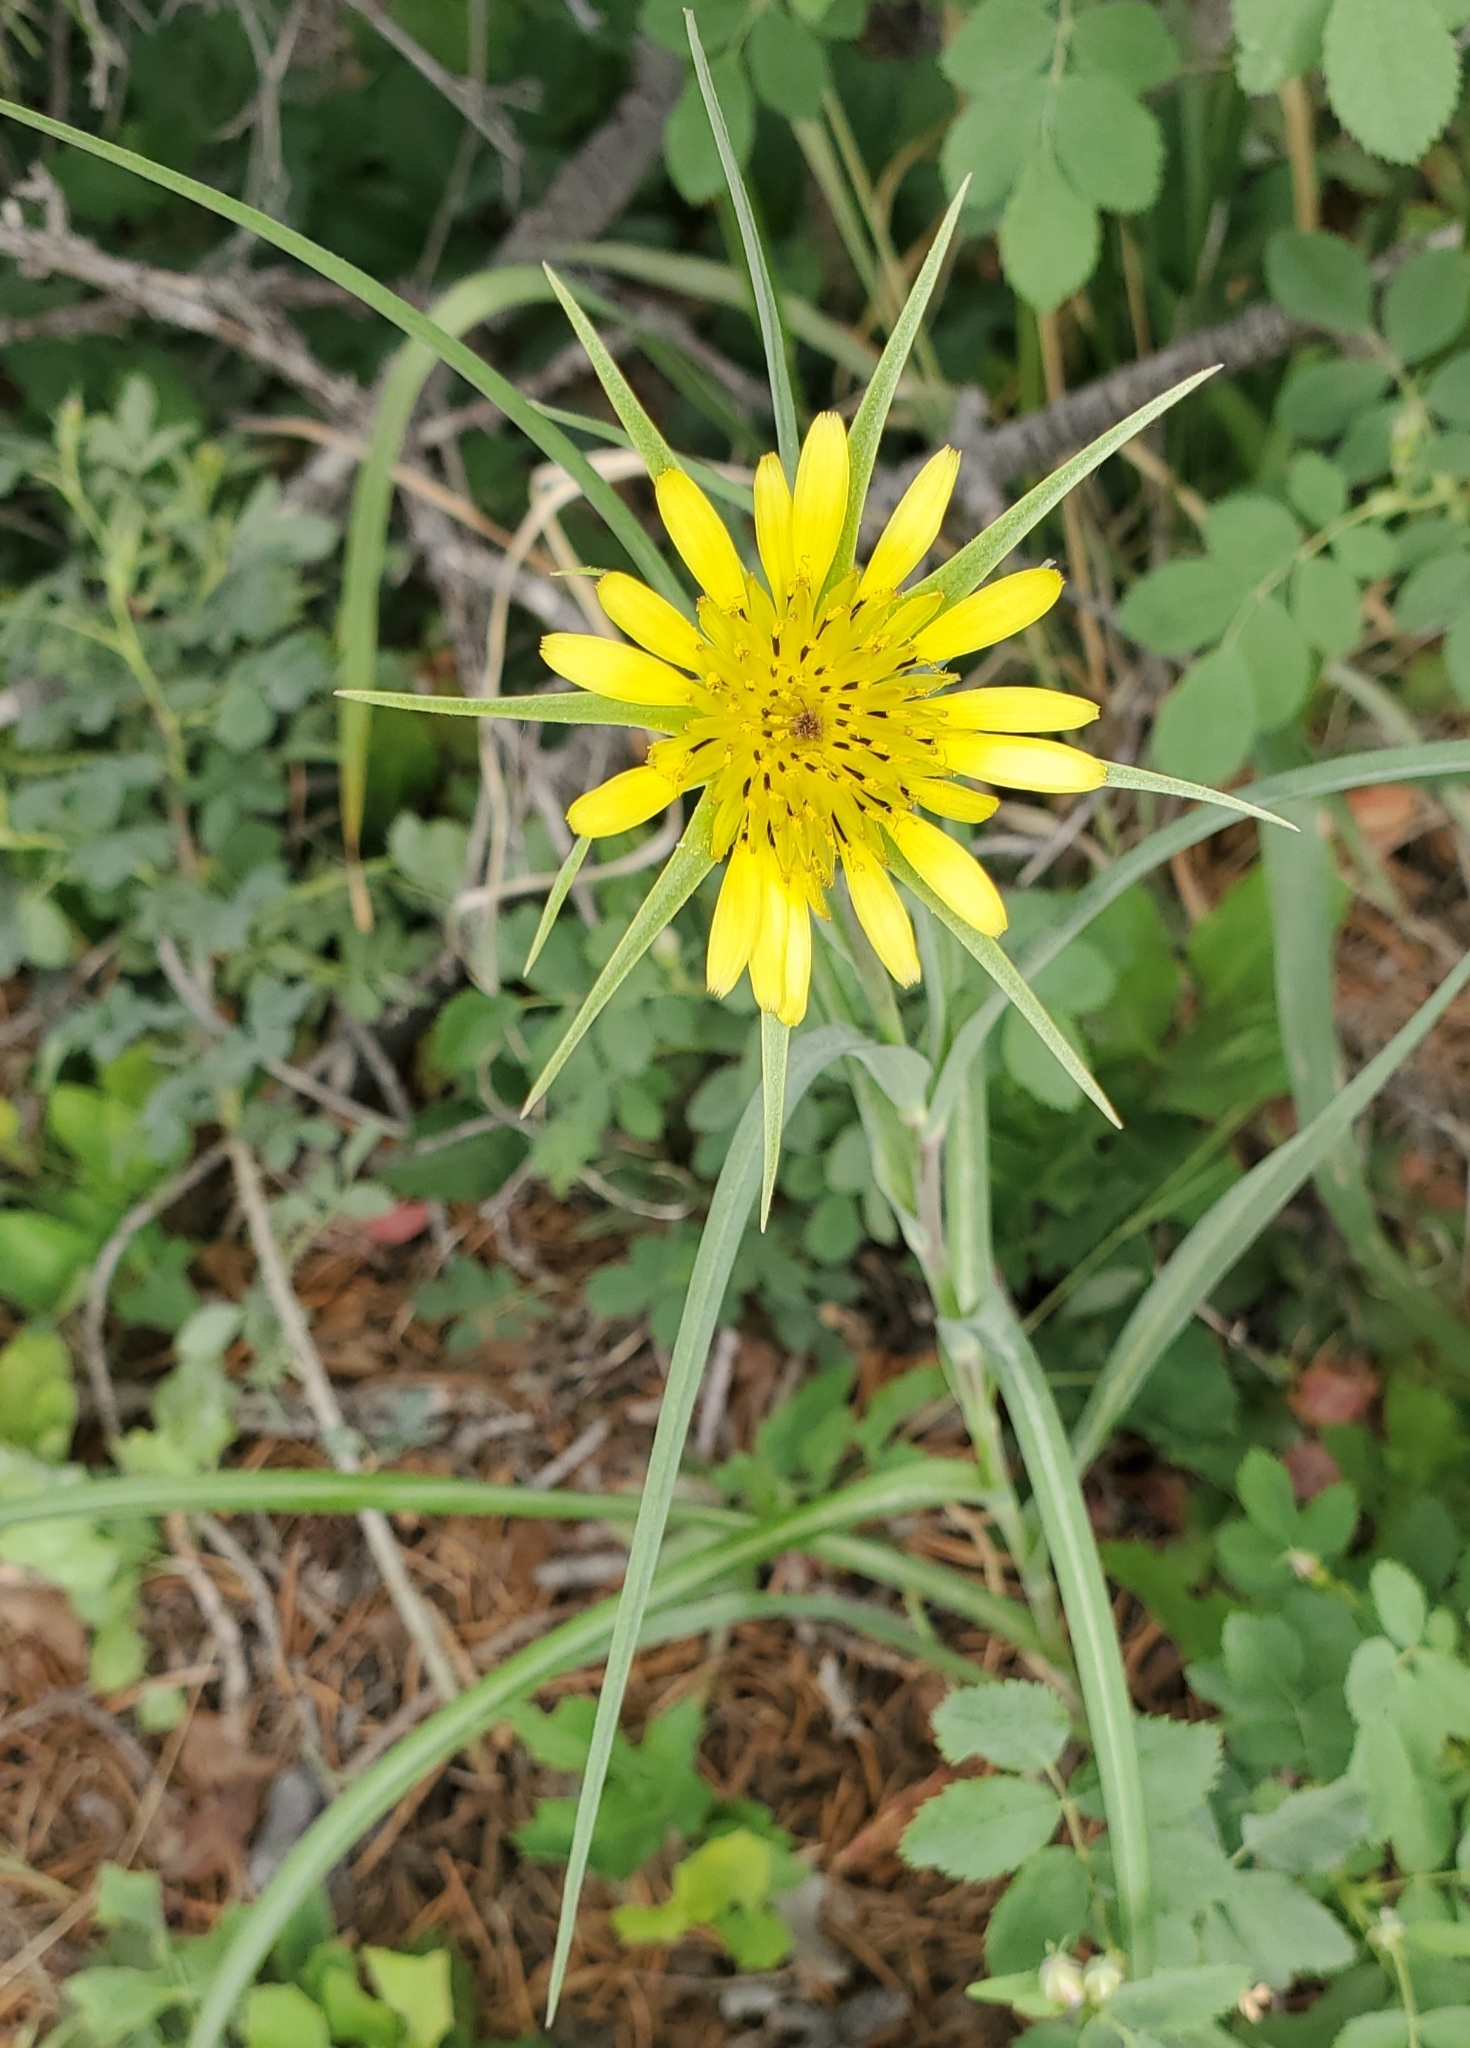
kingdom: Plantae
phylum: Tracheophyta
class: Magnoliopsida
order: Asterales
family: Asteraceae
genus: Tragopogon
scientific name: Tragopogon dubius
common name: Yellow salsify
